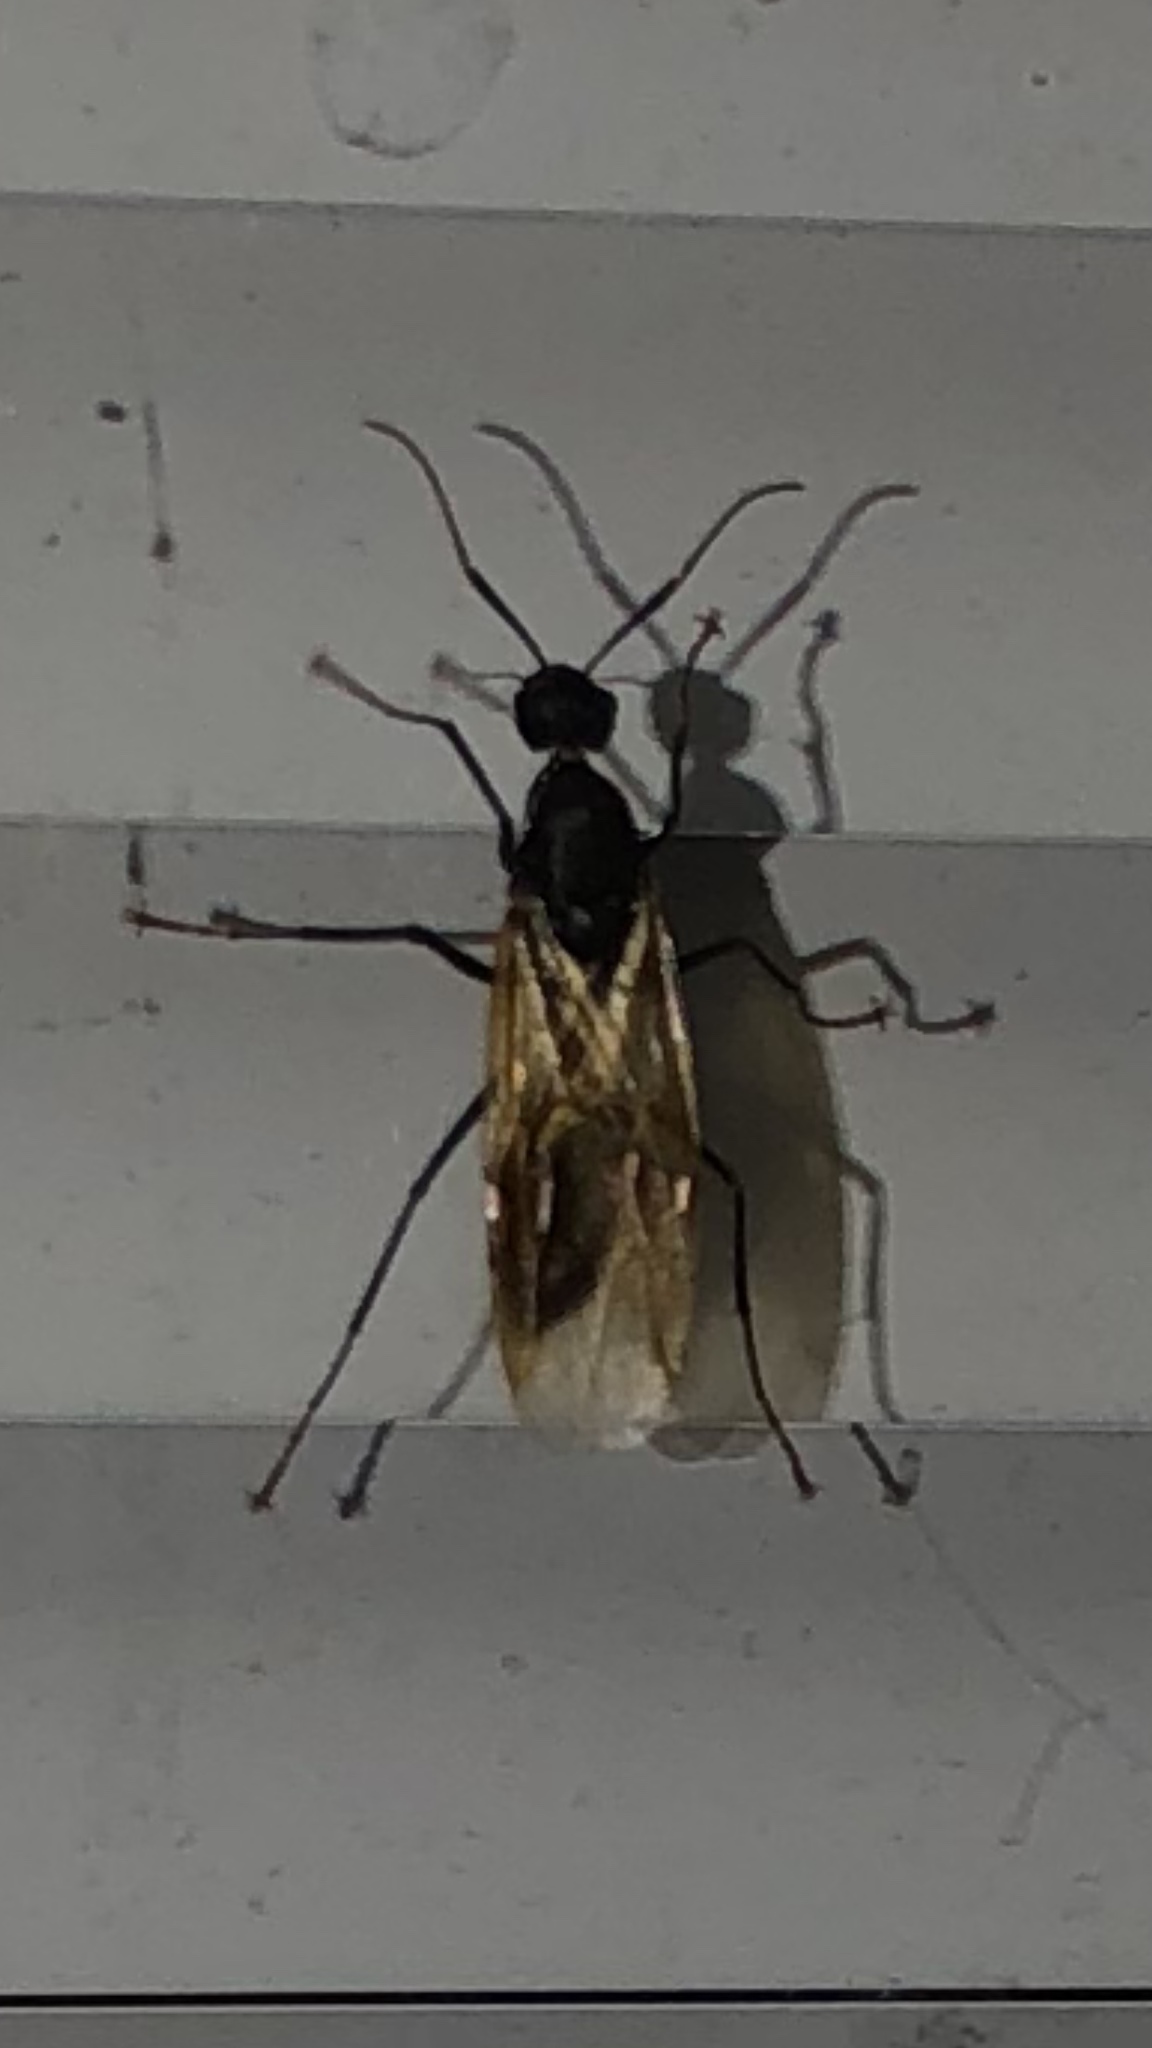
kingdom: Animalia
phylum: Arthropoda
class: Insecta
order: Hymenoptera
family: Formicidae
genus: Camponotus
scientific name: Camponotus pennsylvanicus
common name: Black carpenter ant
